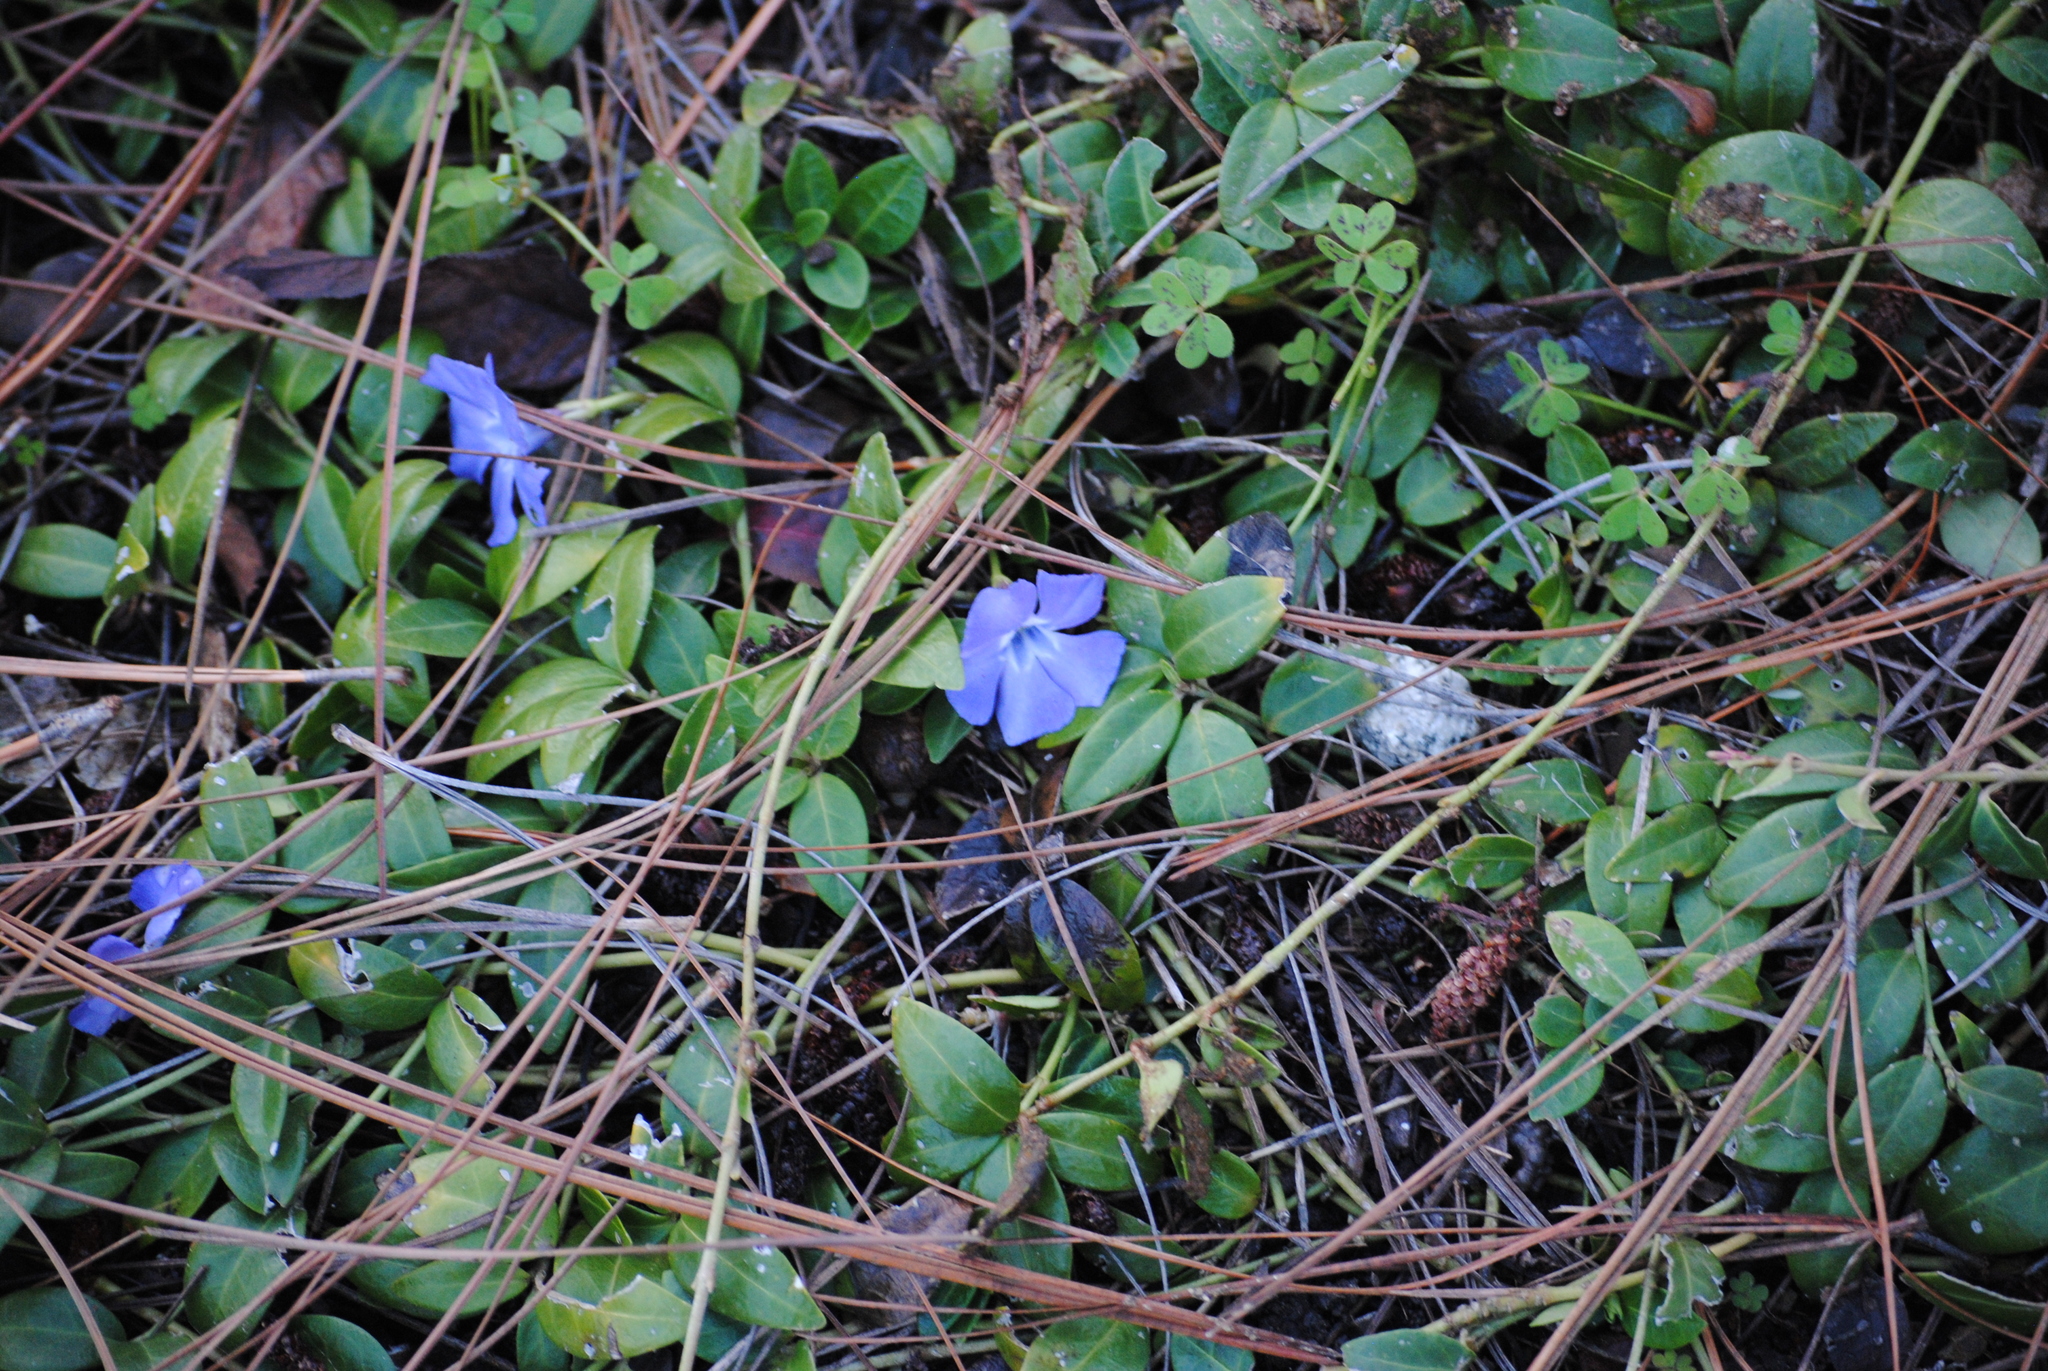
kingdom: Plantae
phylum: Tracheophyta
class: Magnoliopsida
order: Gentianales
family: Apocynaceae
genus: Vinca
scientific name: Vinca minor
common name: Lesser periwinkle
